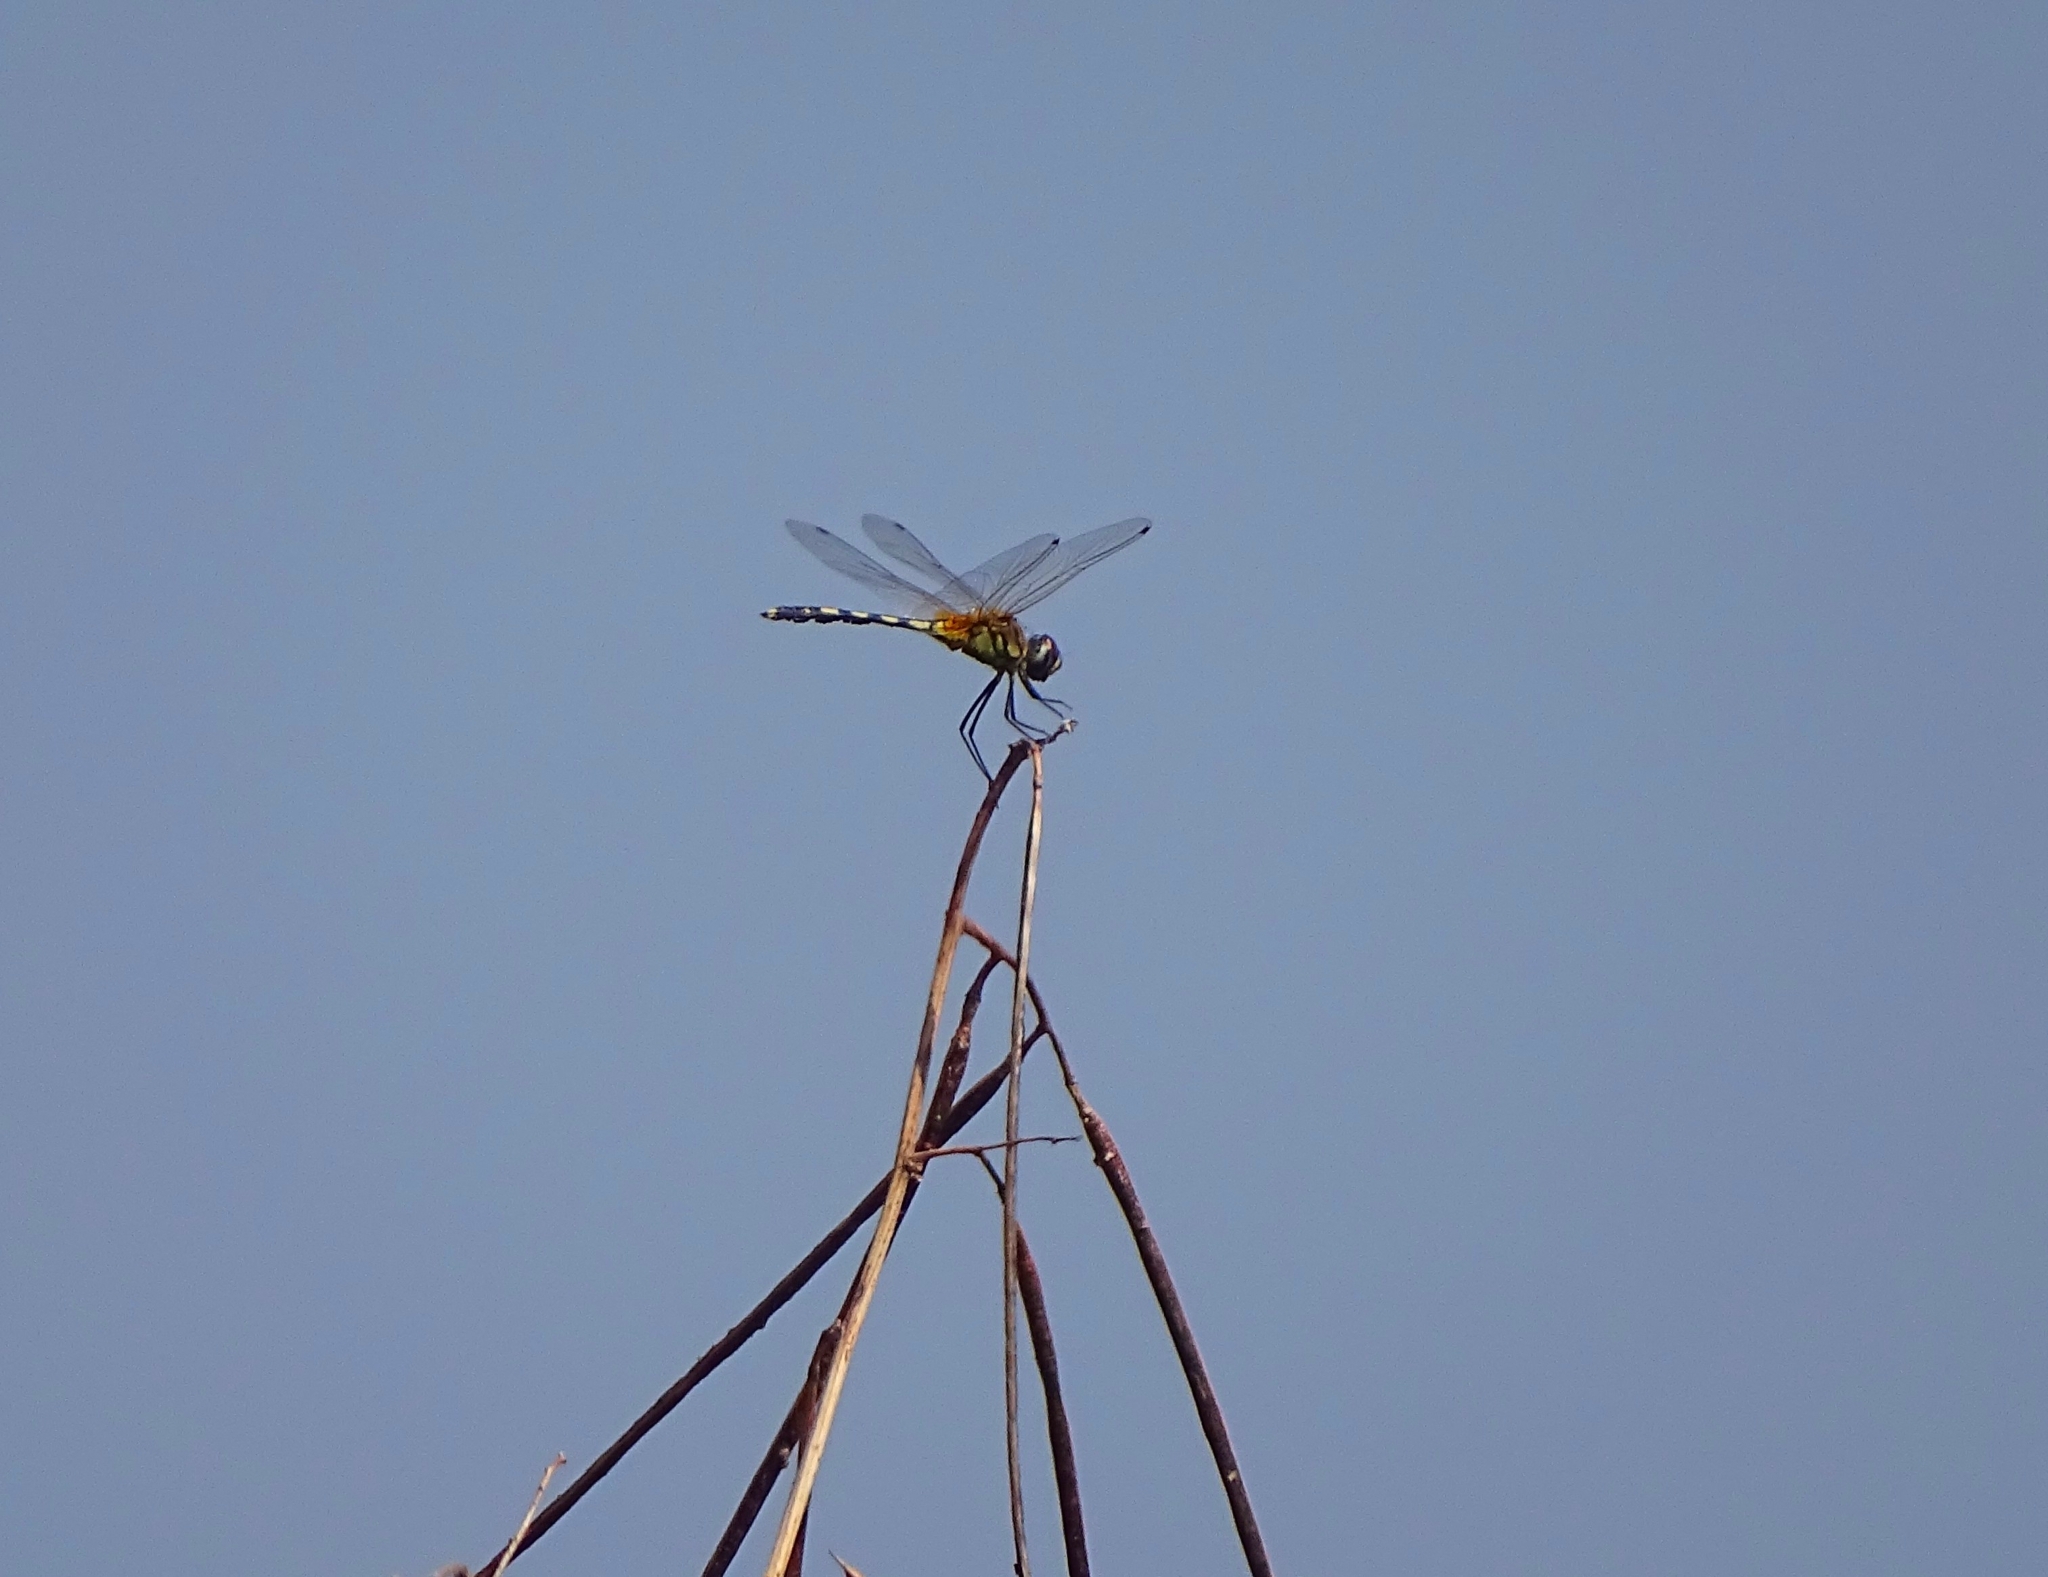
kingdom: Animalia
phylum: Arthropoda
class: Insecta
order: Odonata
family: Libellulidae
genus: Trithemis
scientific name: Trithemis pallidinervis
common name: Dancing dropwing
